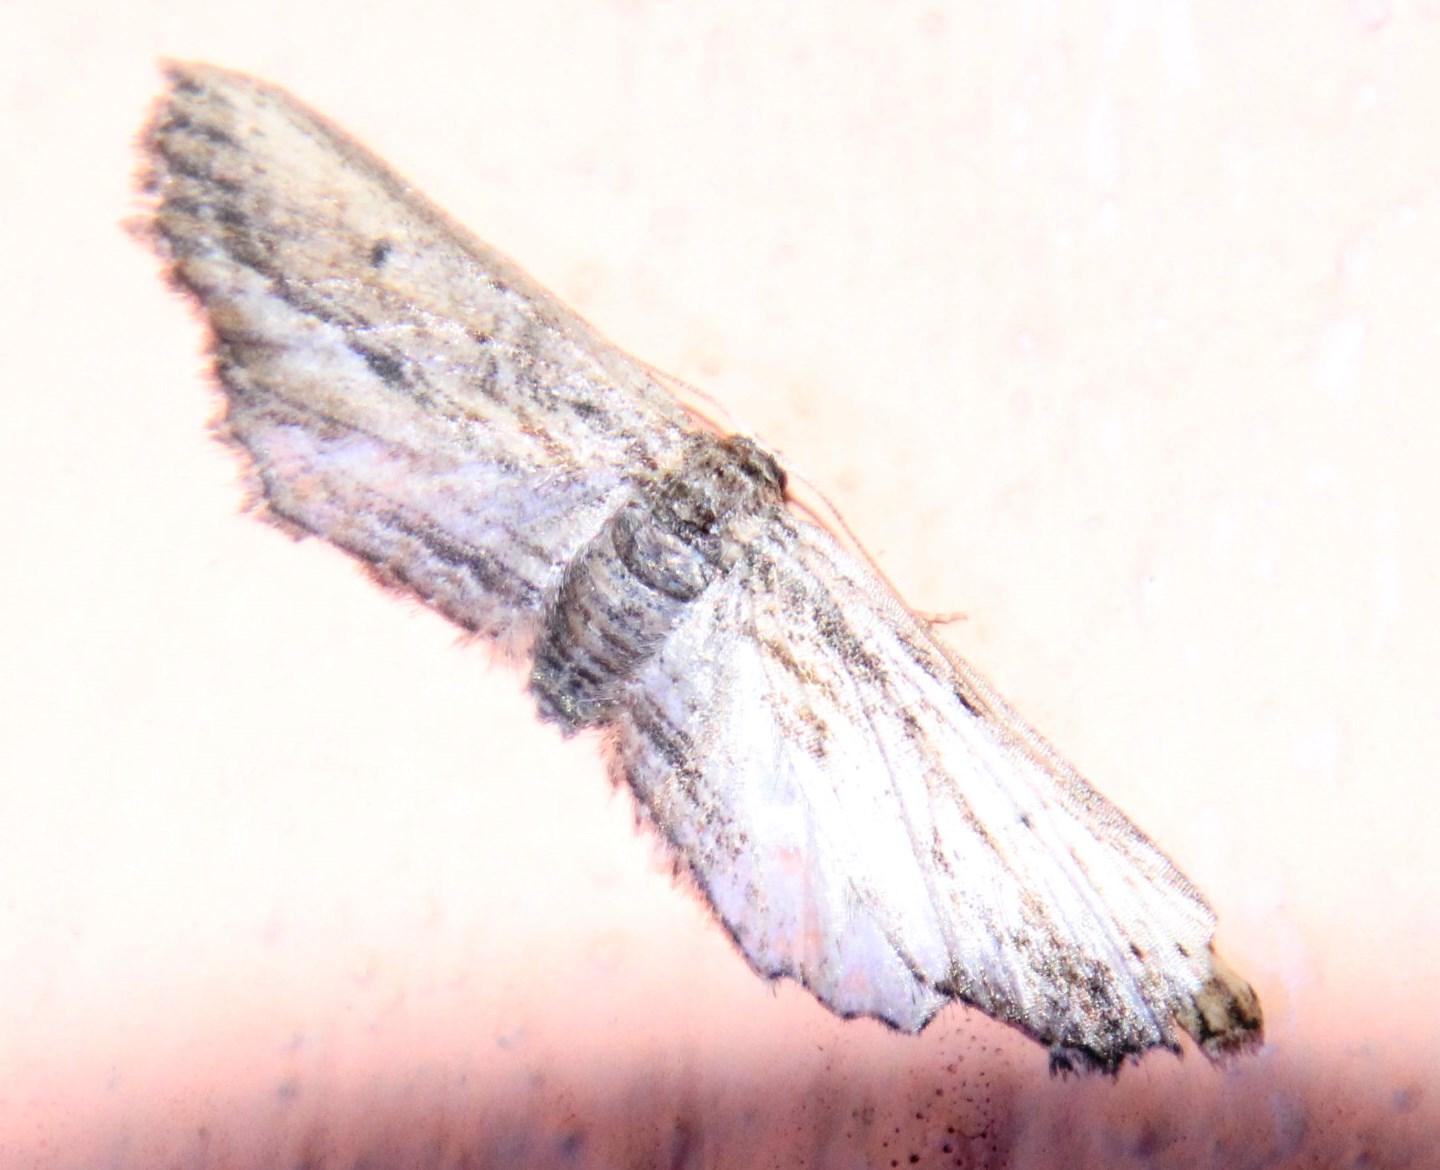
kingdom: Animalia
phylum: Arthropoda
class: Insecta
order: Lepidoptera
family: Geometridae
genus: Hebdomophruda
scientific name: Hebdomophruda nigroviridis
